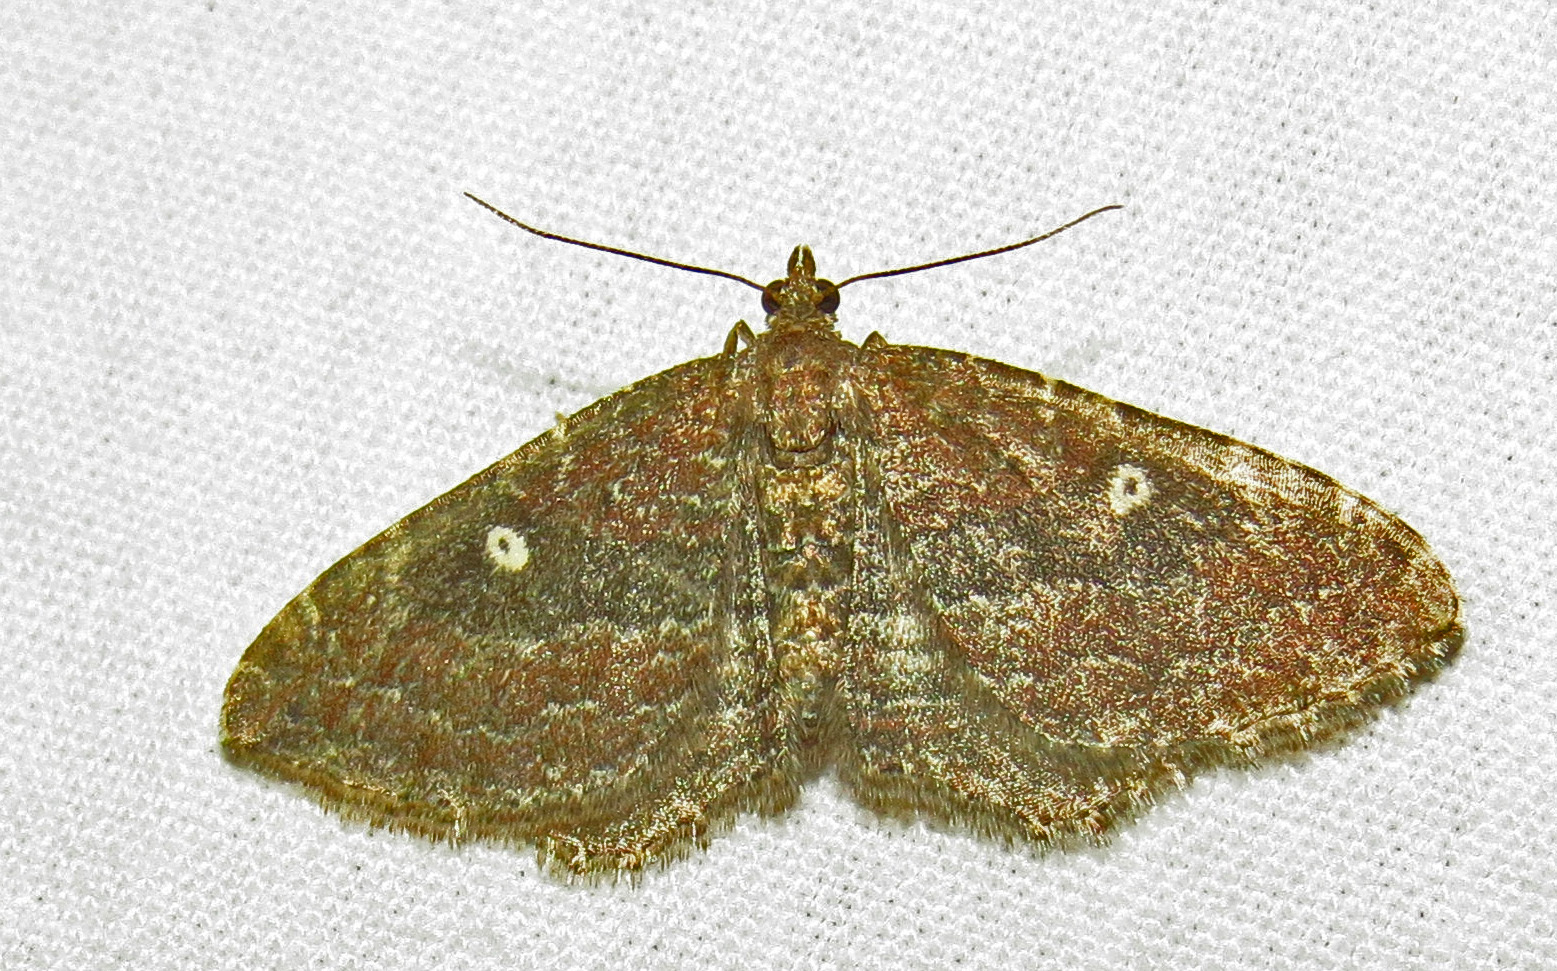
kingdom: Animalia
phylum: Arthropoda
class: Insecta
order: Lepidoptera
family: Geometridae
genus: Orthonama
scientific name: Orthonama obstipata
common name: The gem
